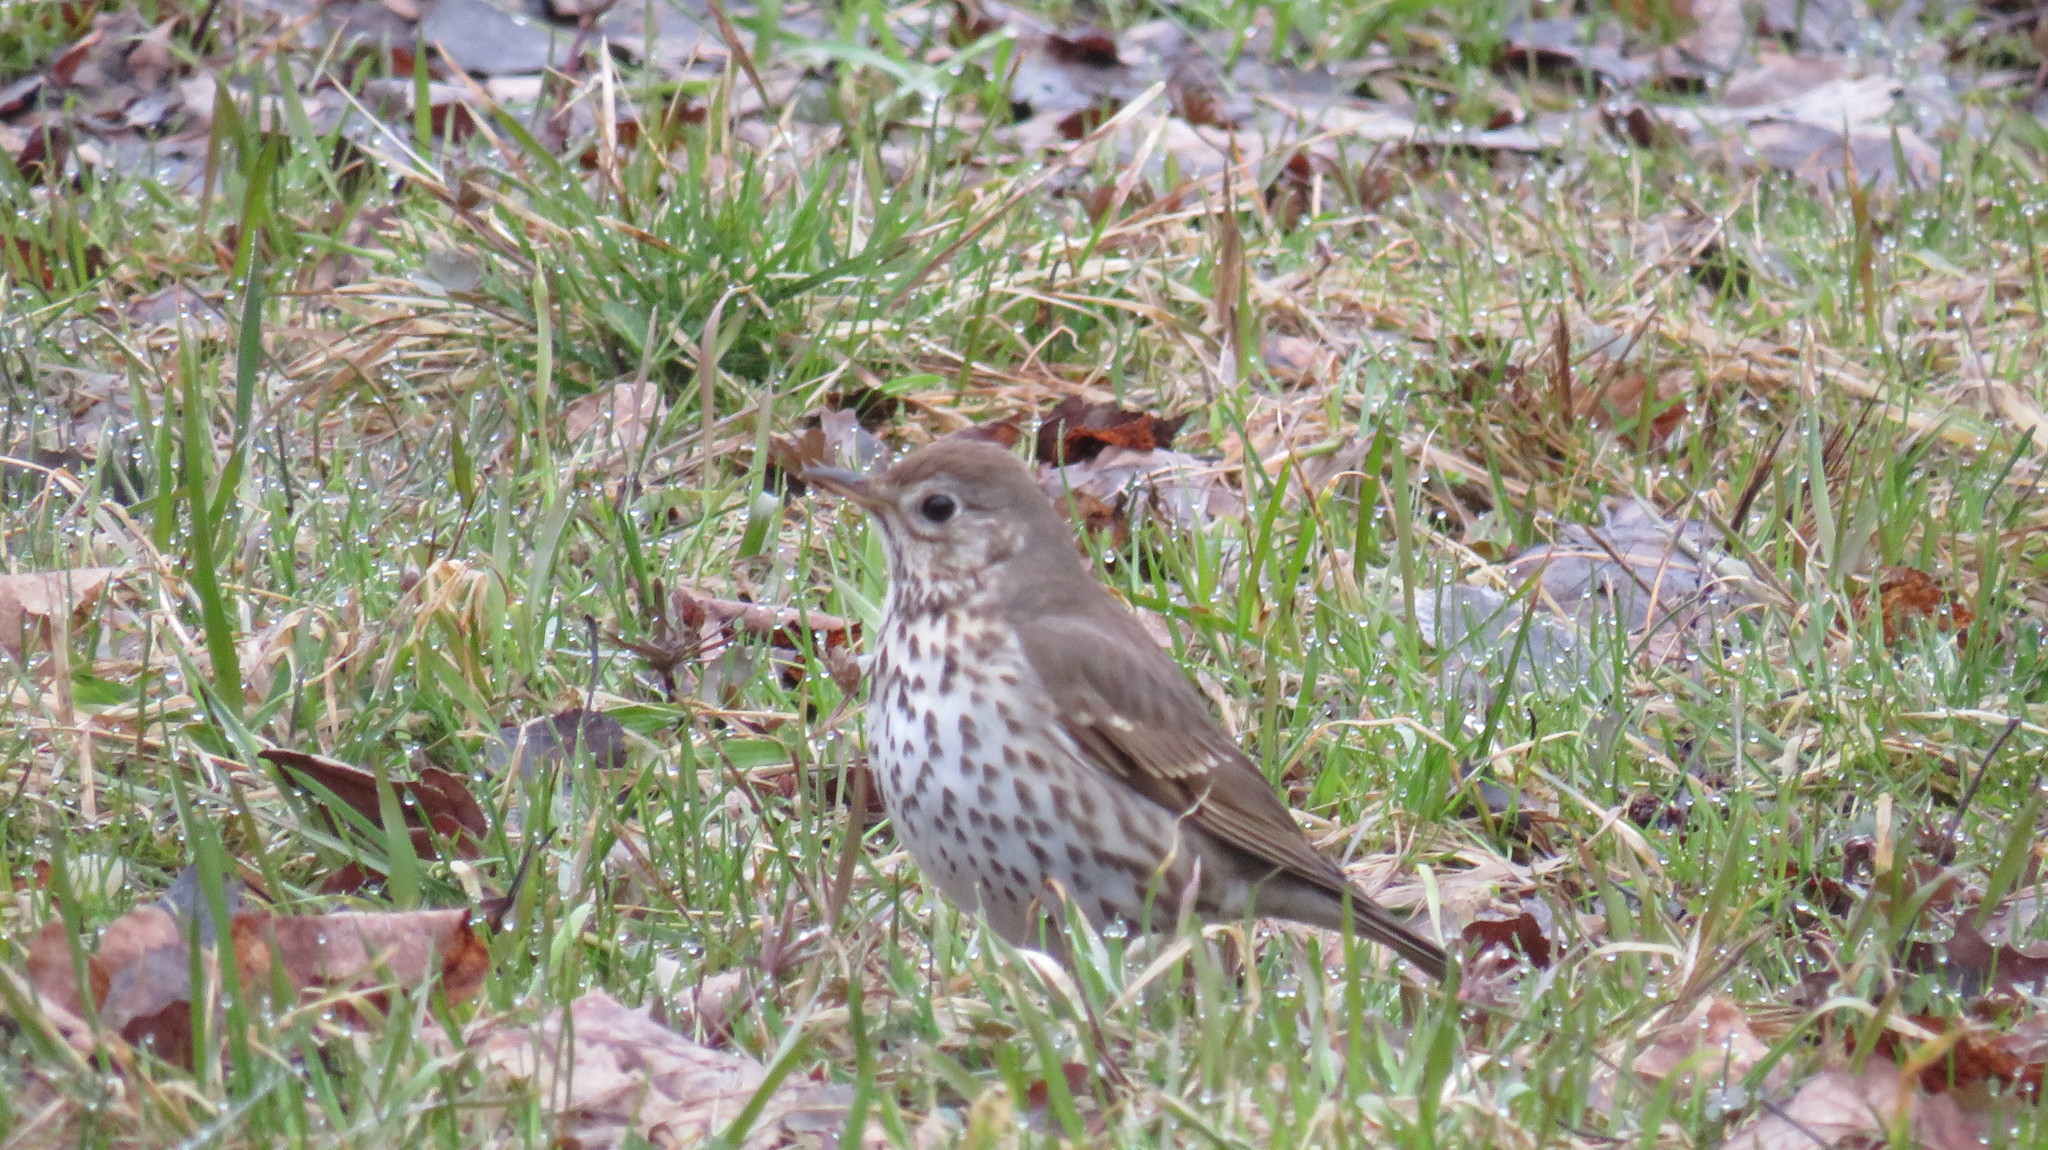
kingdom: Animalia
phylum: Chordata
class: Aves
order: Passeriformes
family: Turdidae
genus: Turdus
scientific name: Turdus philomelos
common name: Song thrush
